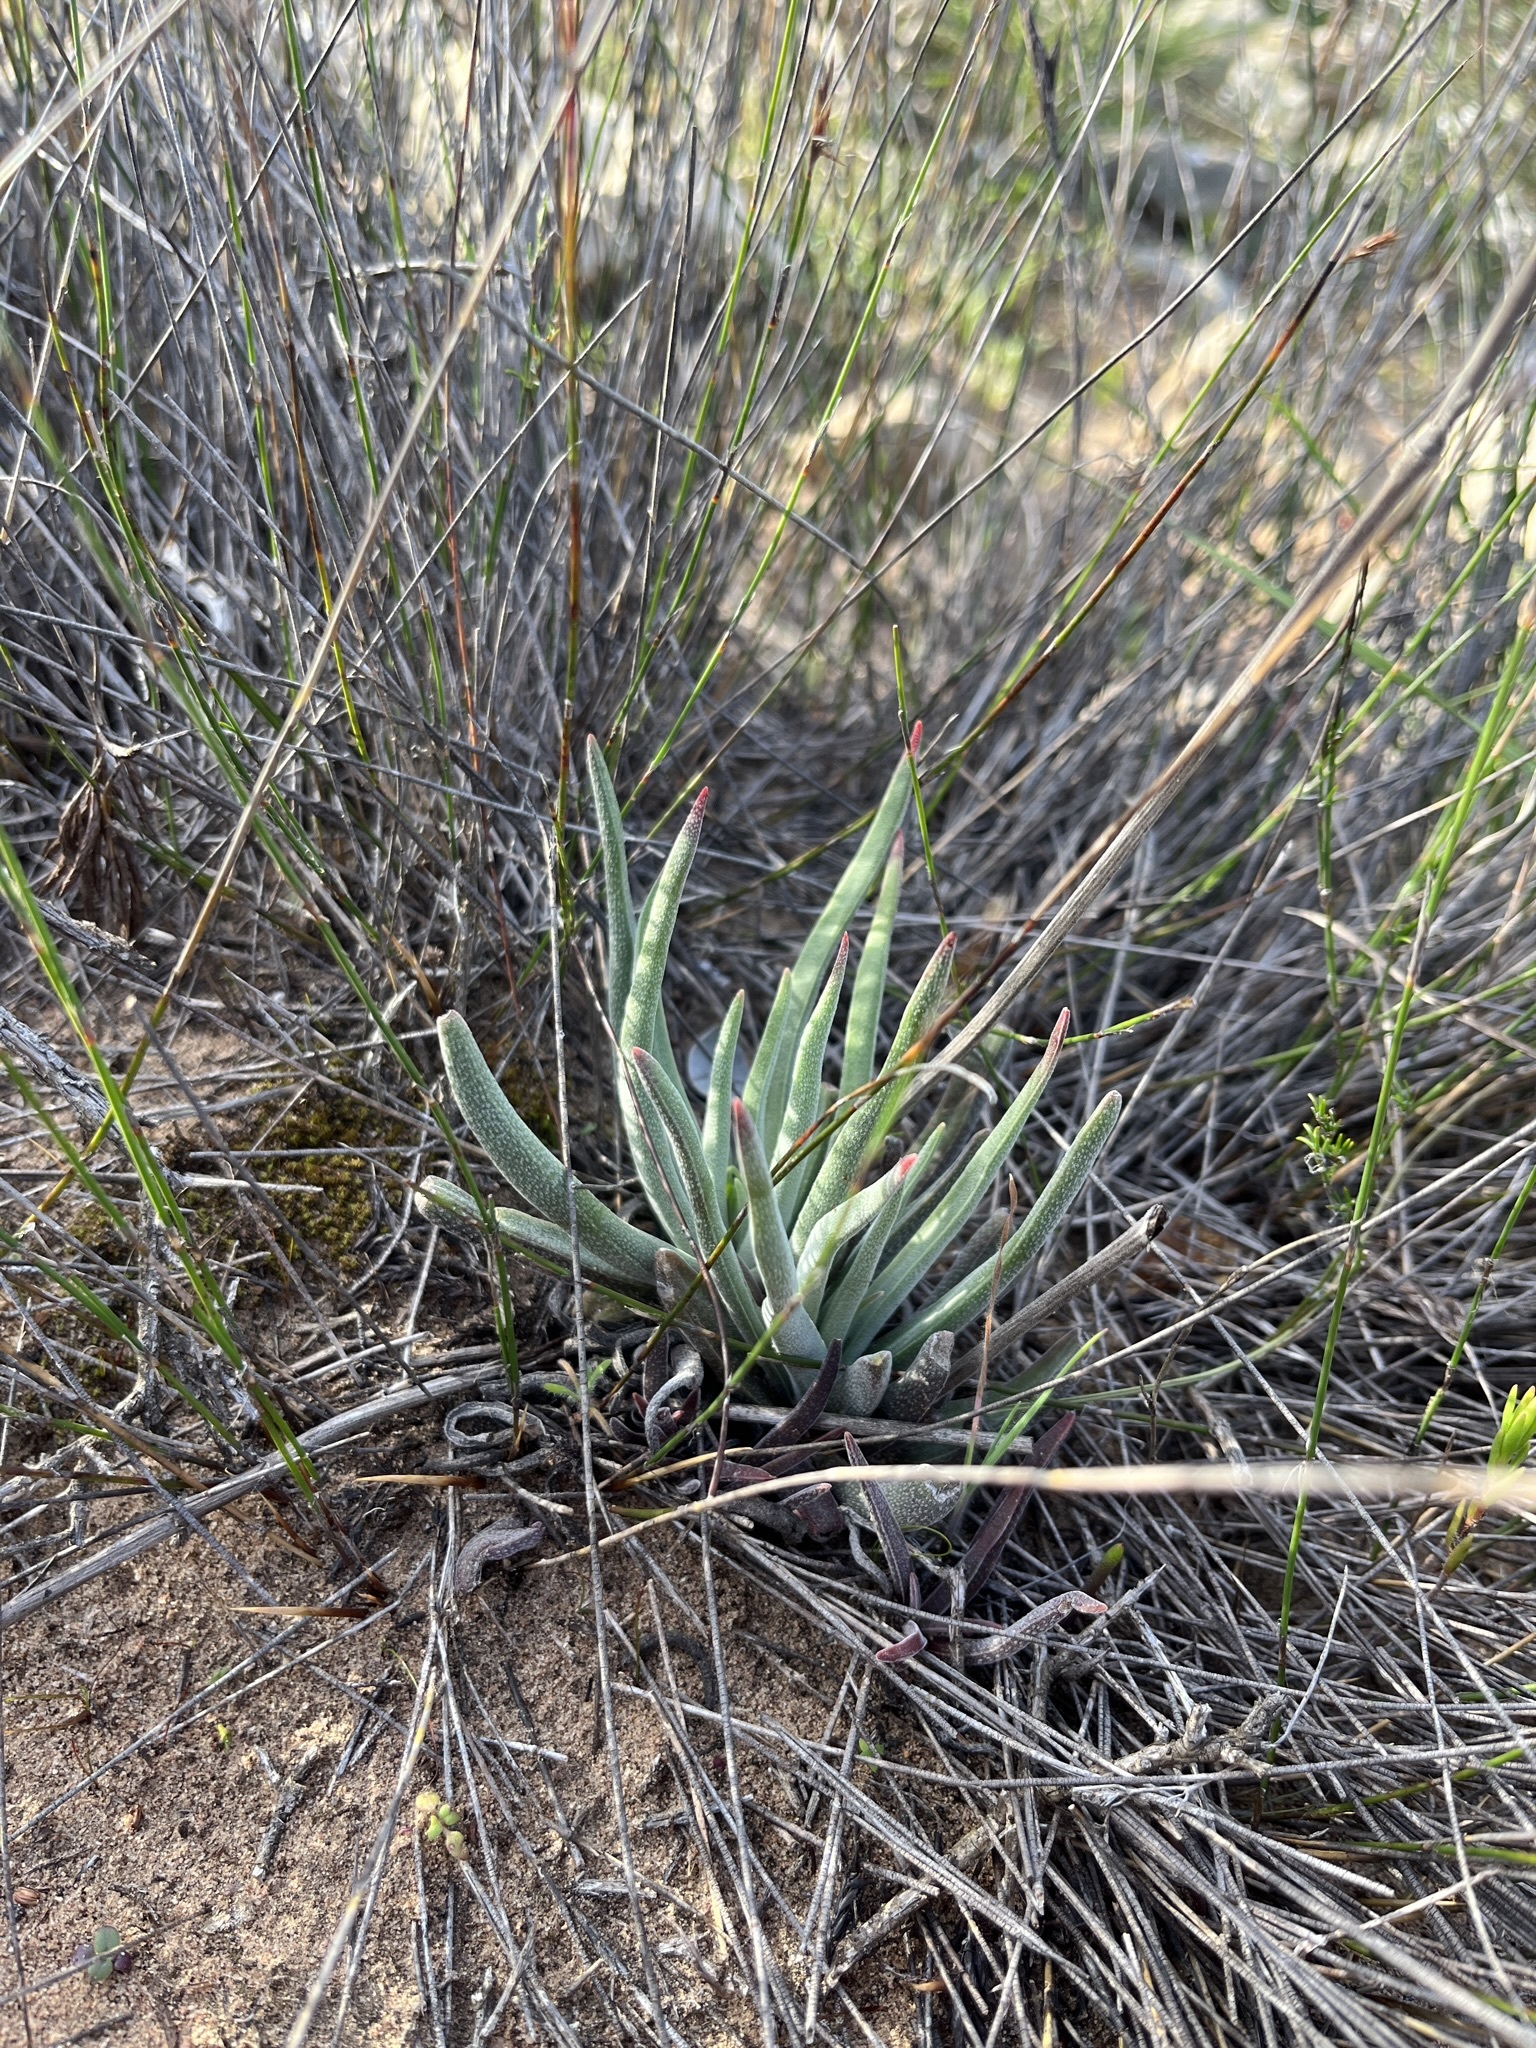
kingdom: Plantae
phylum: Tracheophyta
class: Magnoliopsida
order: Saxifragales
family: Crassulaceae
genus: Crassula
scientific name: Crassula nudicaulis
